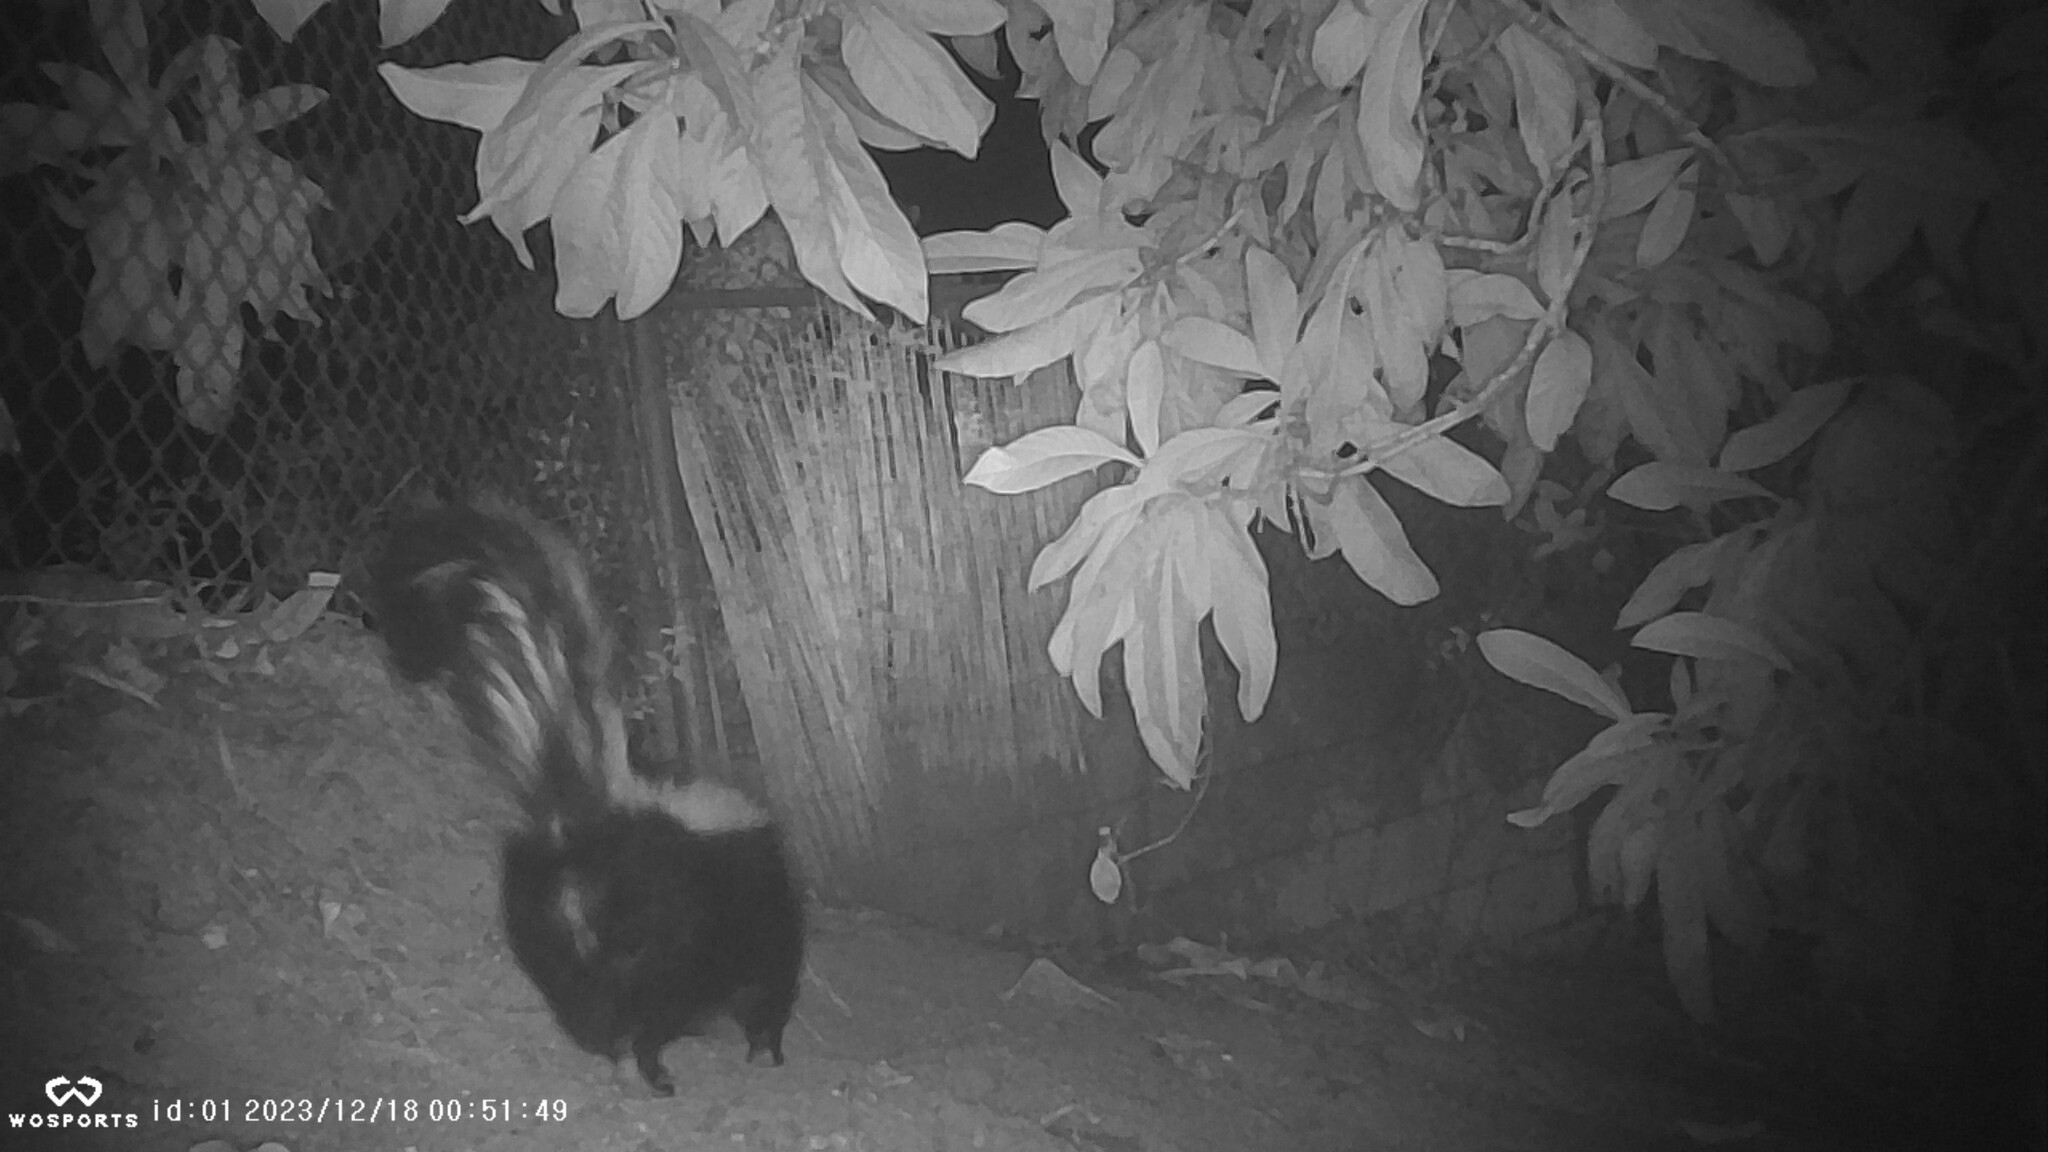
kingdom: Animalia
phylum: Chordata
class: Mammalia
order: Carnivora
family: Mephitidae
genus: Mephitis
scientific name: Mephitis mephitis
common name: Striped skunk
